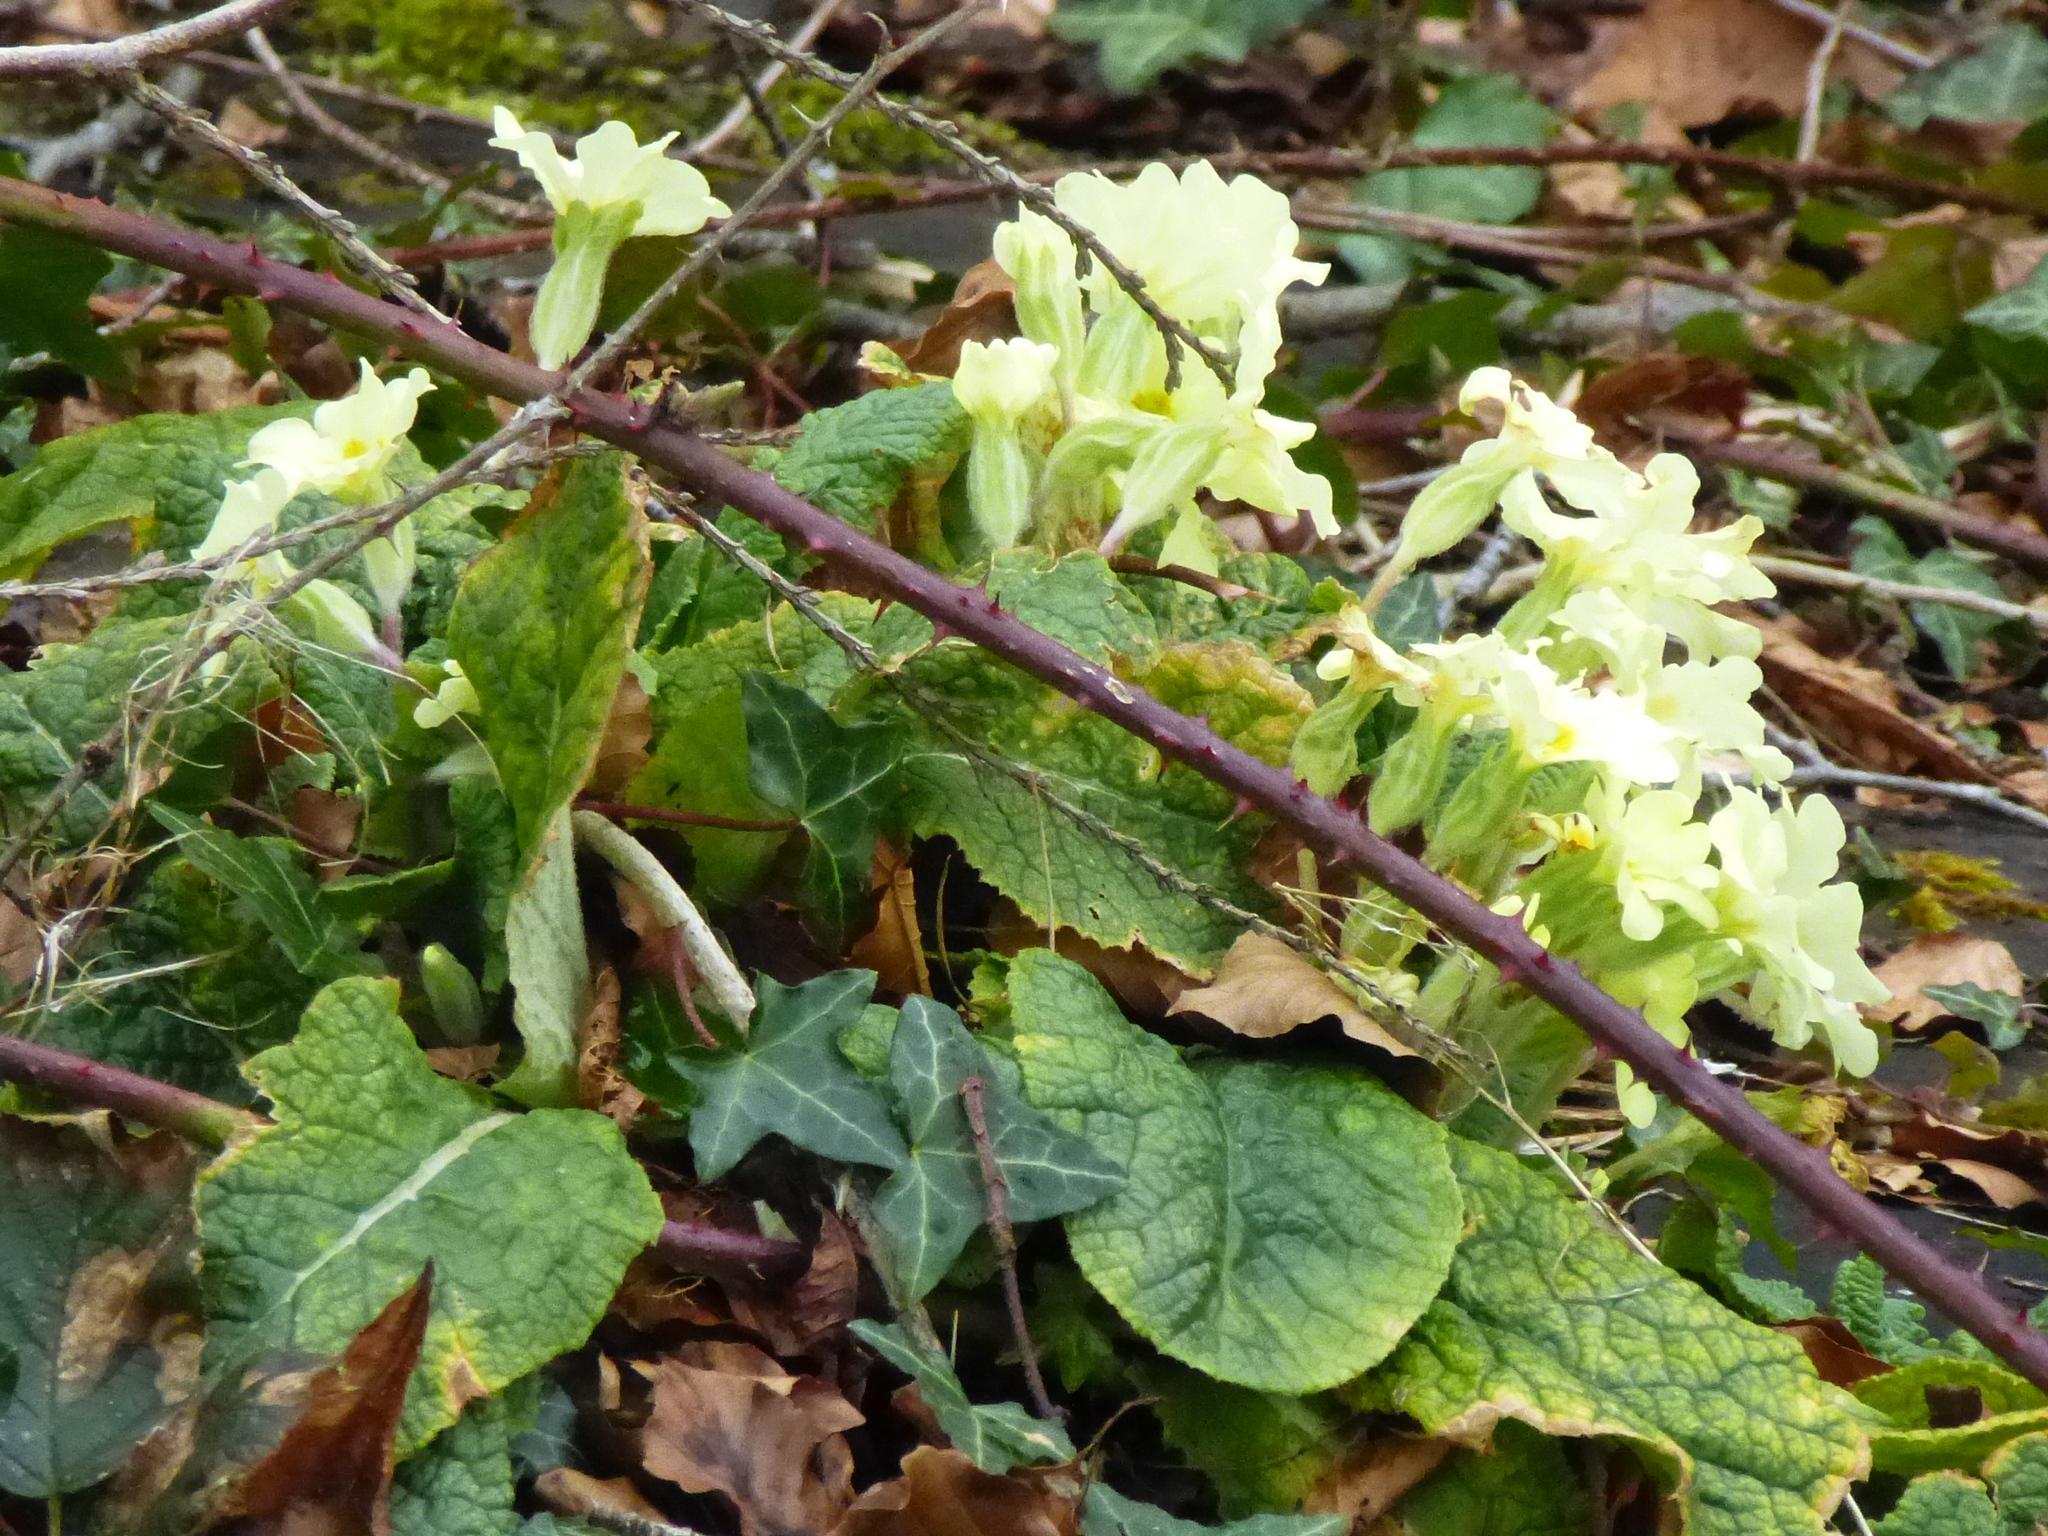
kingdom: Plantae
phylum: Tracheophyta
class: Magnoliopsida
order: Ericales
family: Primulaceae
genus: Primula
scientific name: Primula vulgaris
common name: Primrose
